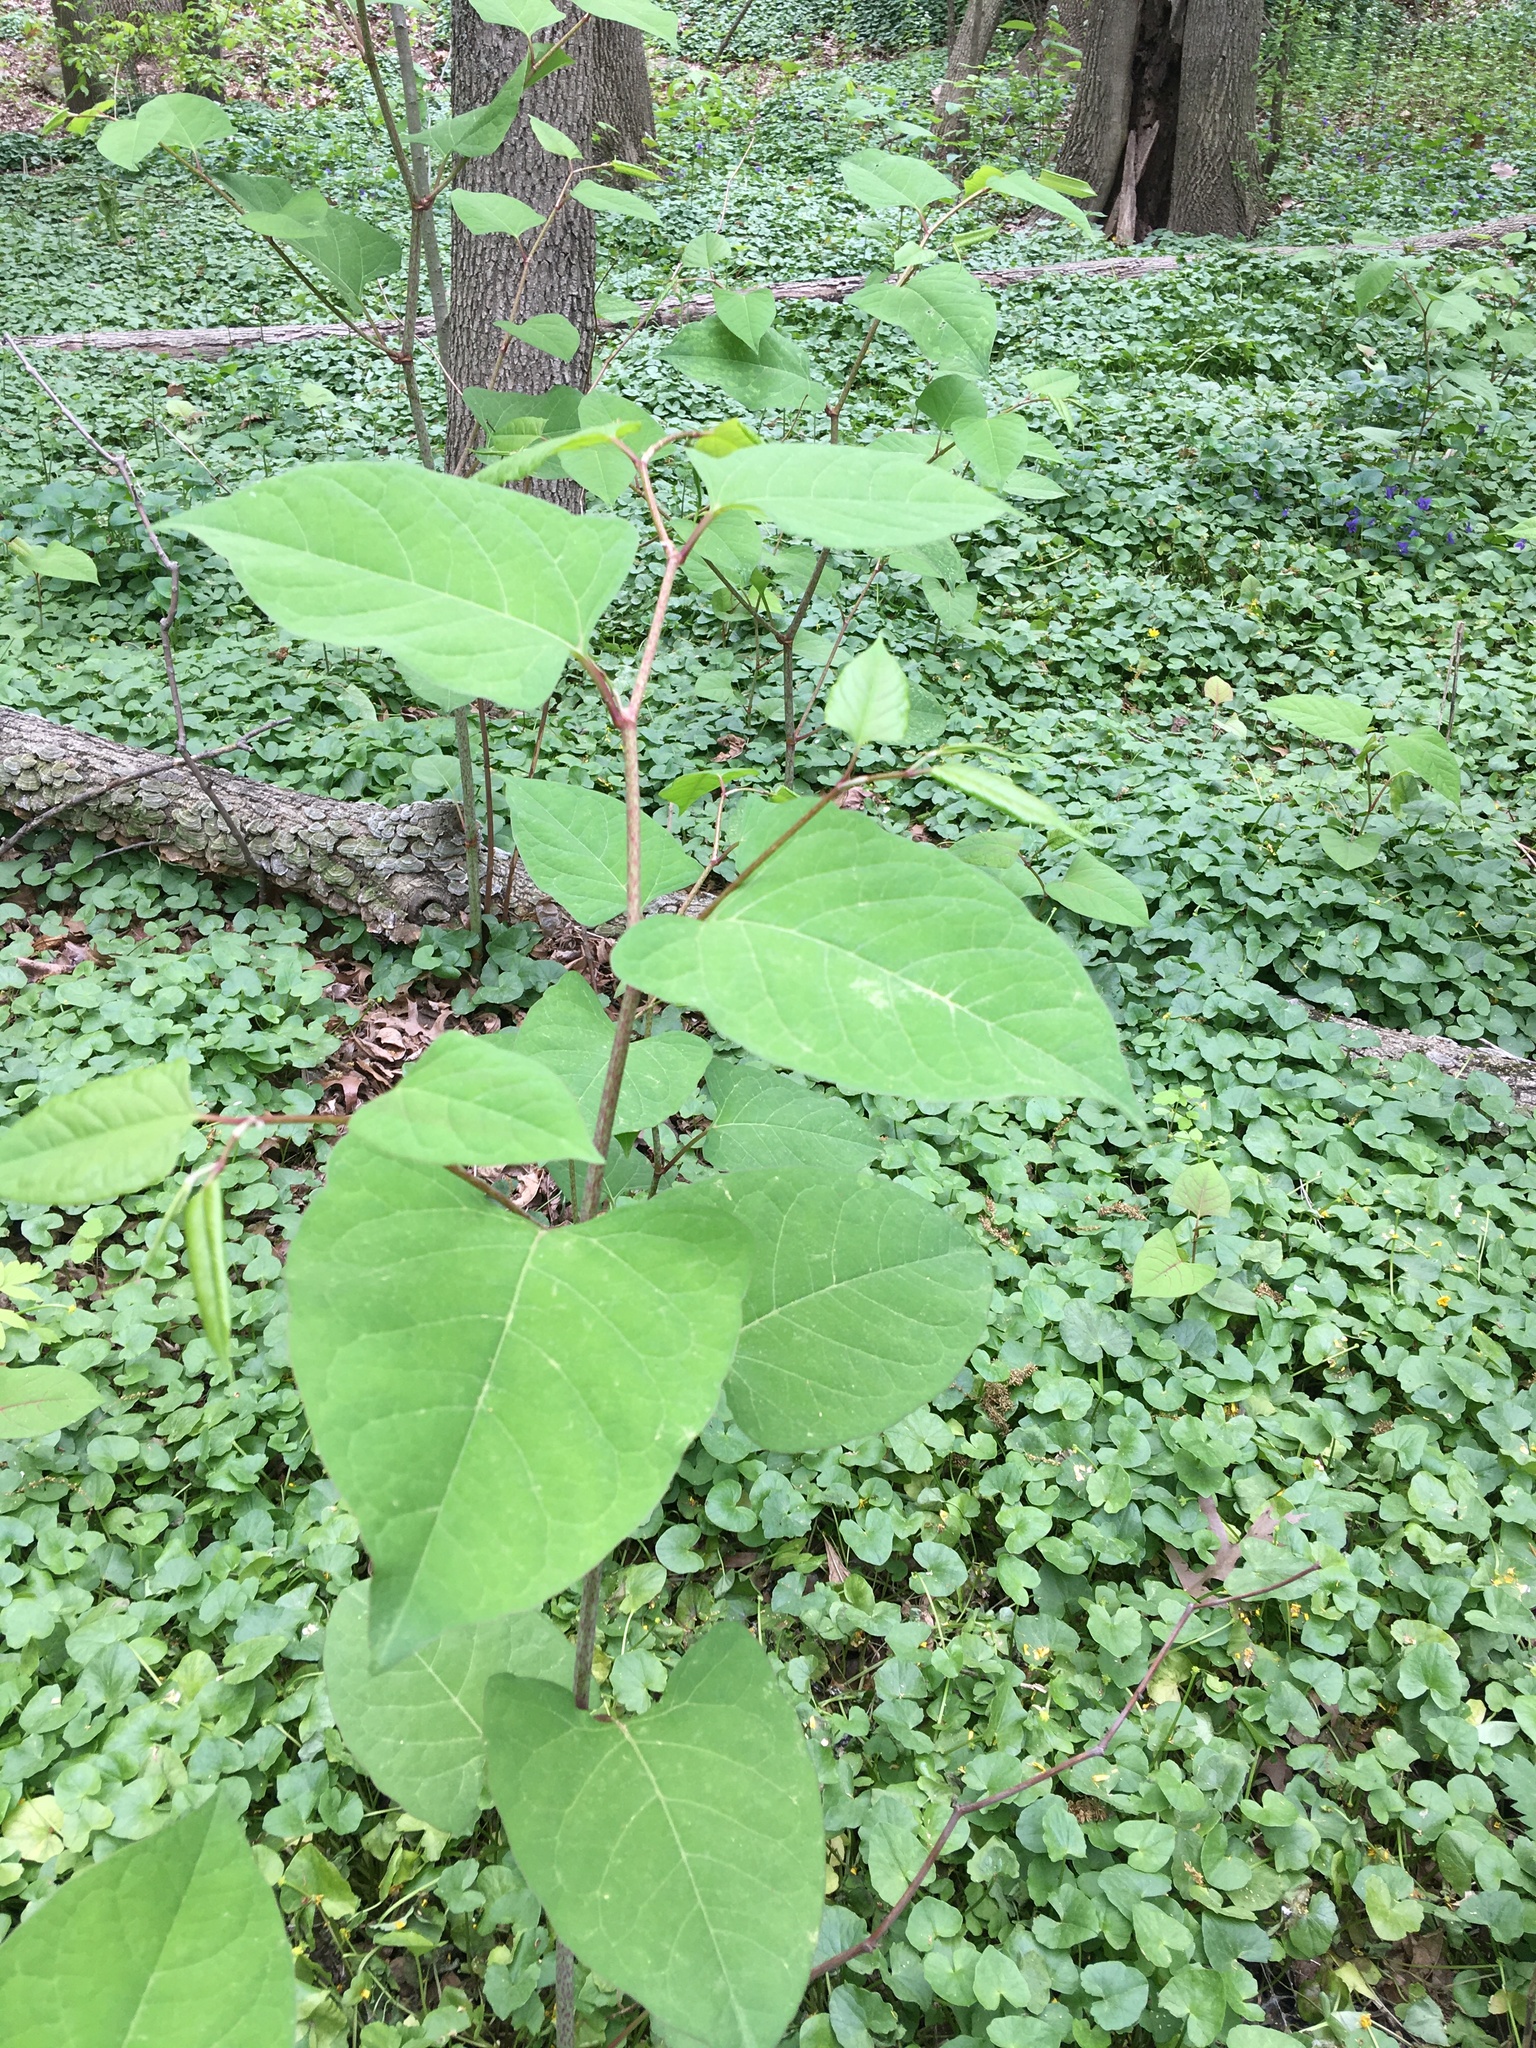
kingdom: Plantae
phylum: Tracheophyta
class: Magnoliopsida
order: Caryophyllales
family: Polygonaceae
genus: Reynoutria
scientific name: Reynoutria japonica
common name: Japanese knotweed
